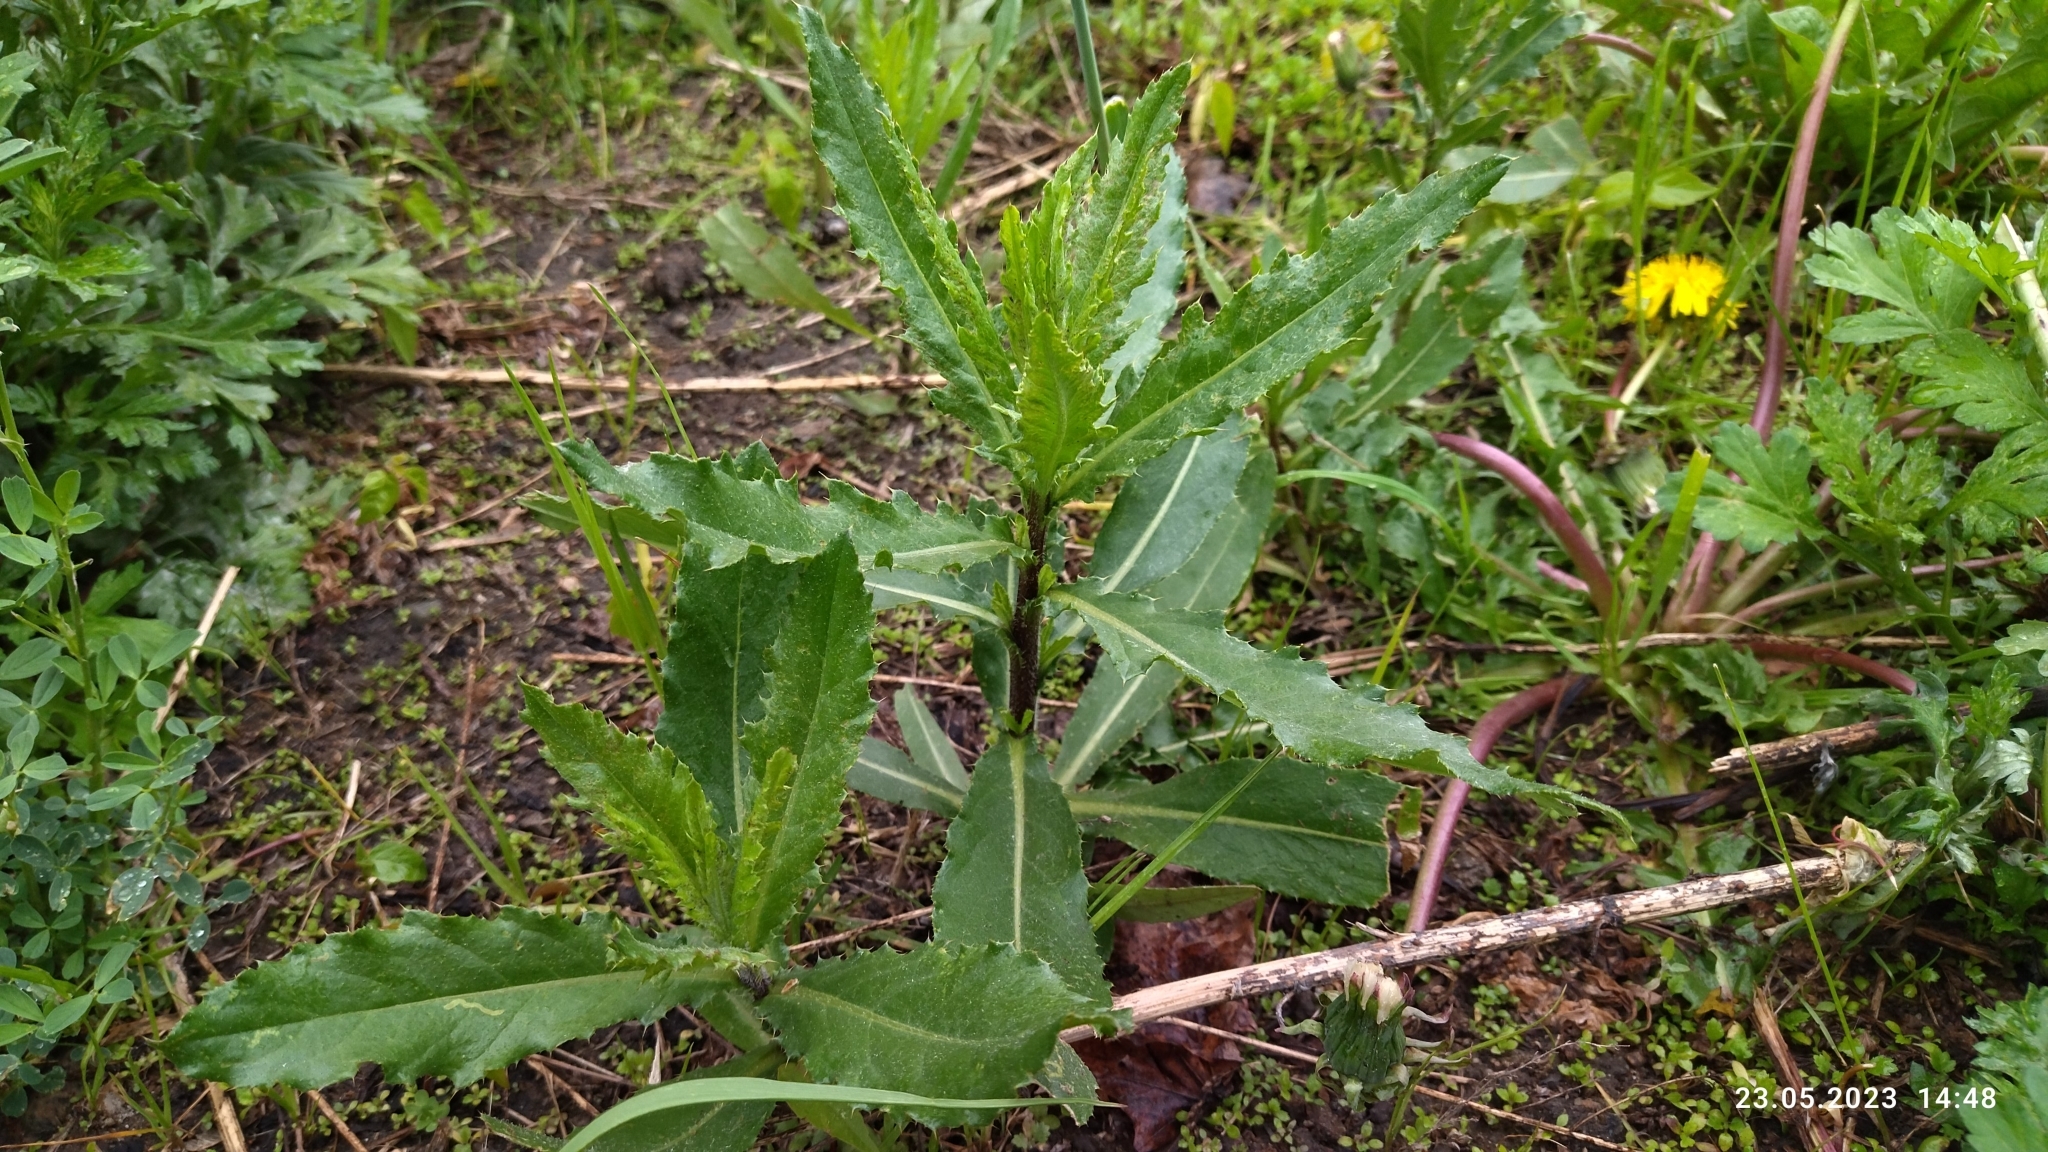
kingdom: Plantae
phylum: Tracheophyta
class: Magnoliopsida
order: Asterales
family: Asteraceae
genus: Cirsium
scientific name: Cirsium arvense
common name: Creeping thistle
